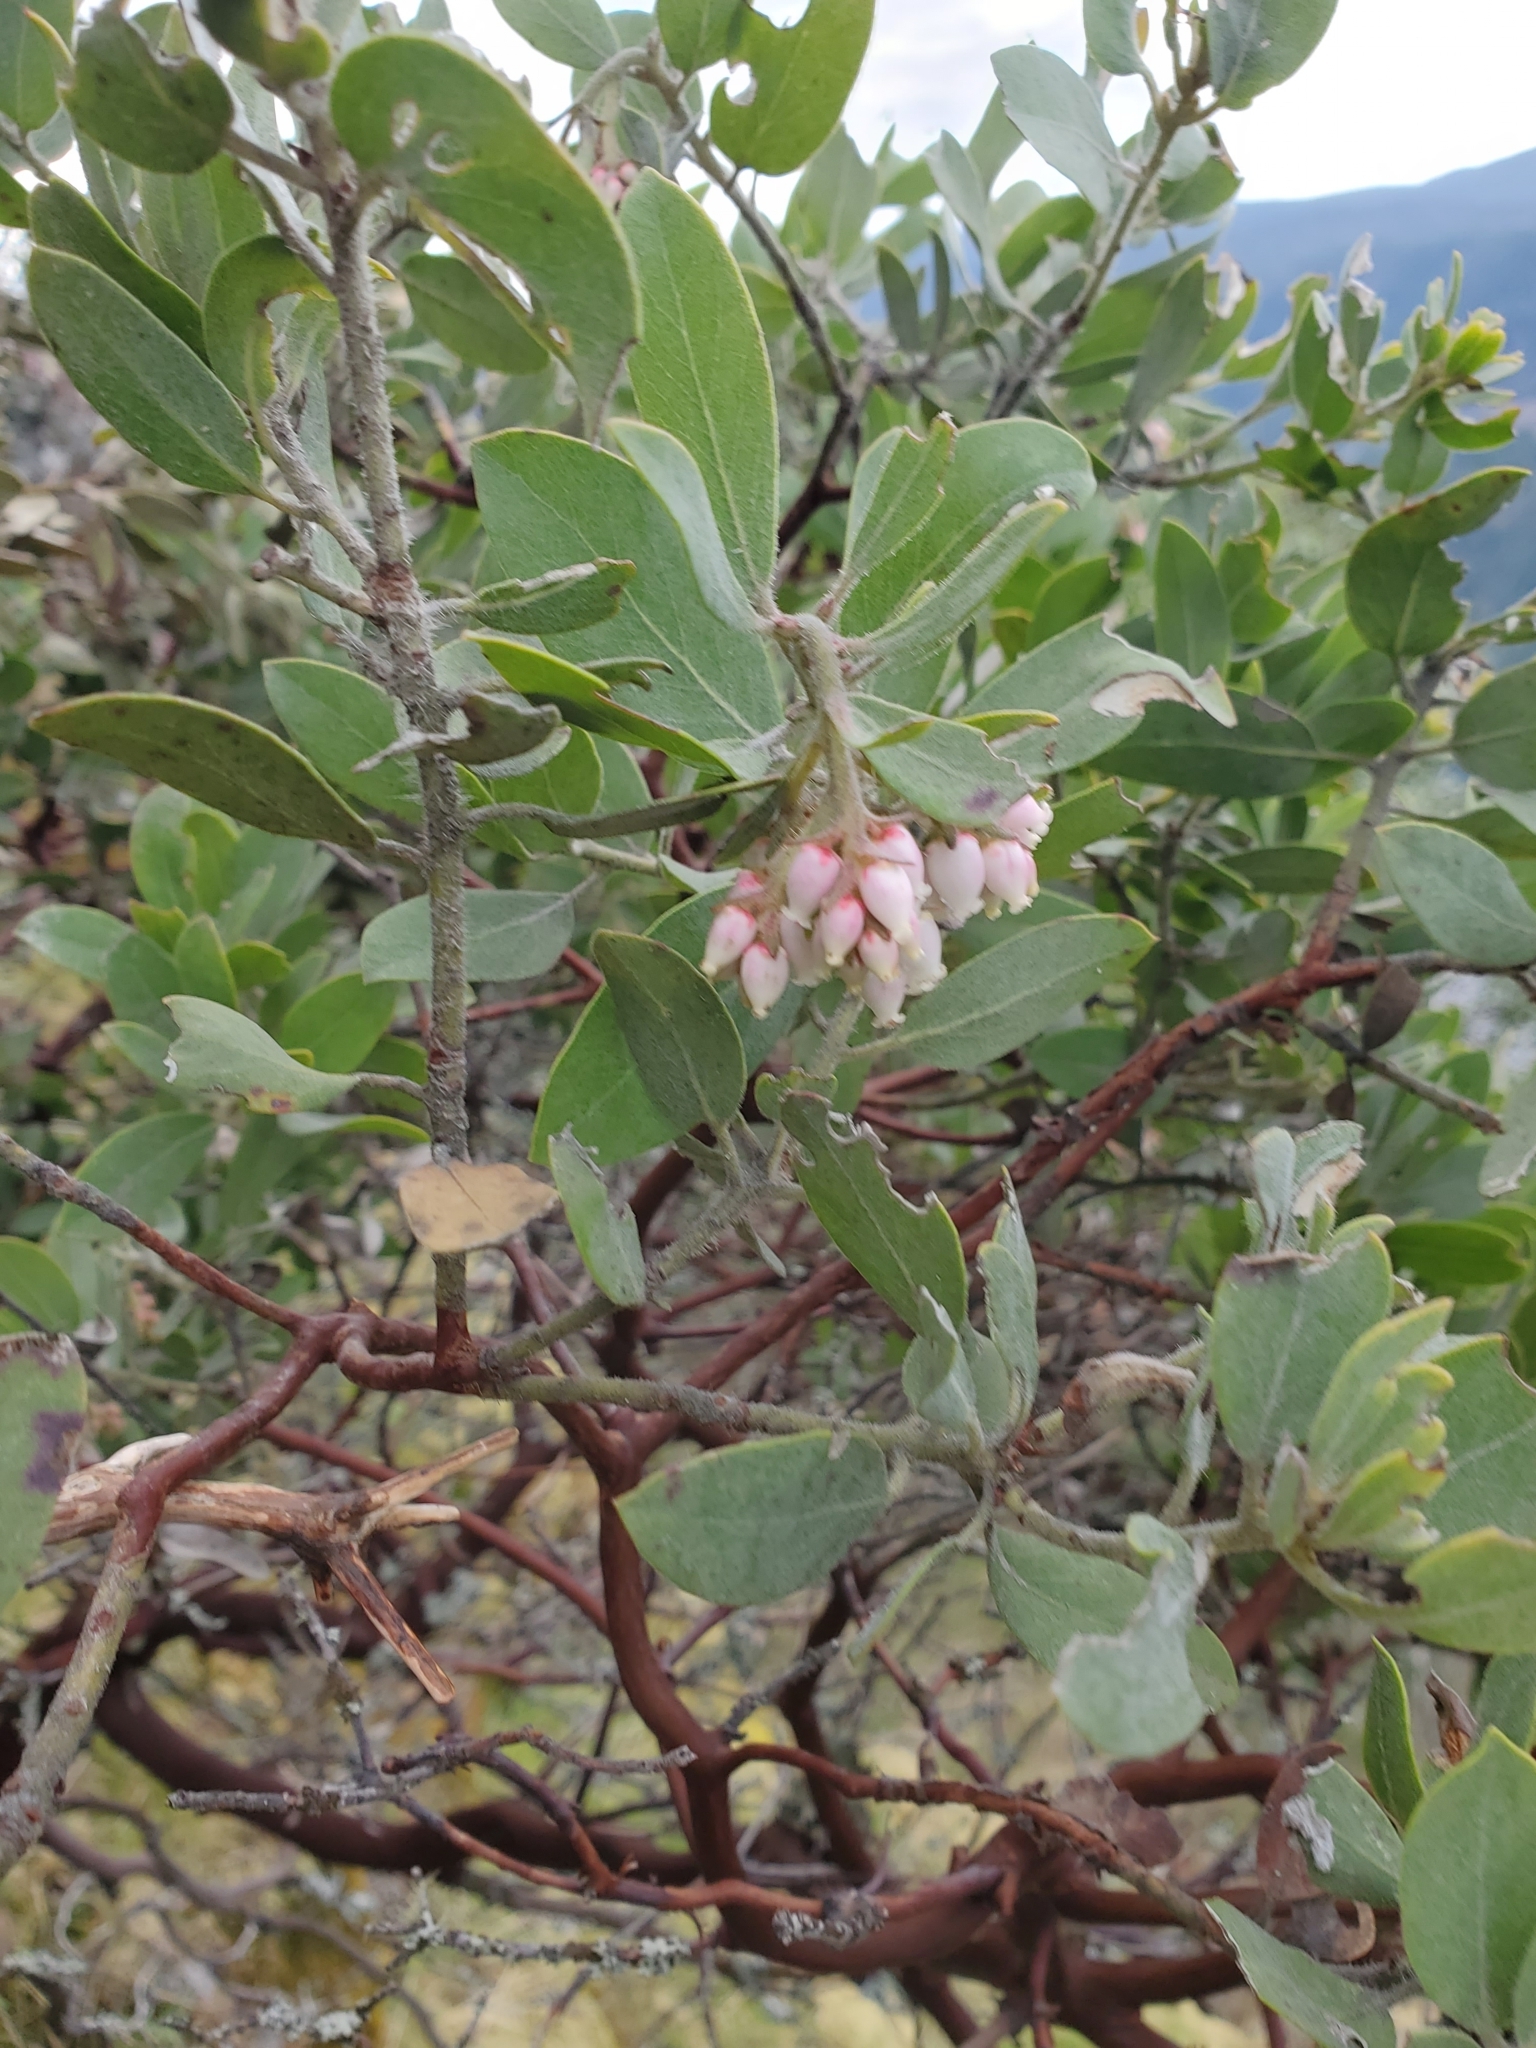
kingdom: Plantae
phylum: Tracheophyta
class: Magnoliopsida
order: Ericales
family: Ericaceae
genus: Arctostaphylos
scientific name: Arctostaphylos columbiana
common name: Bristly bearberry
